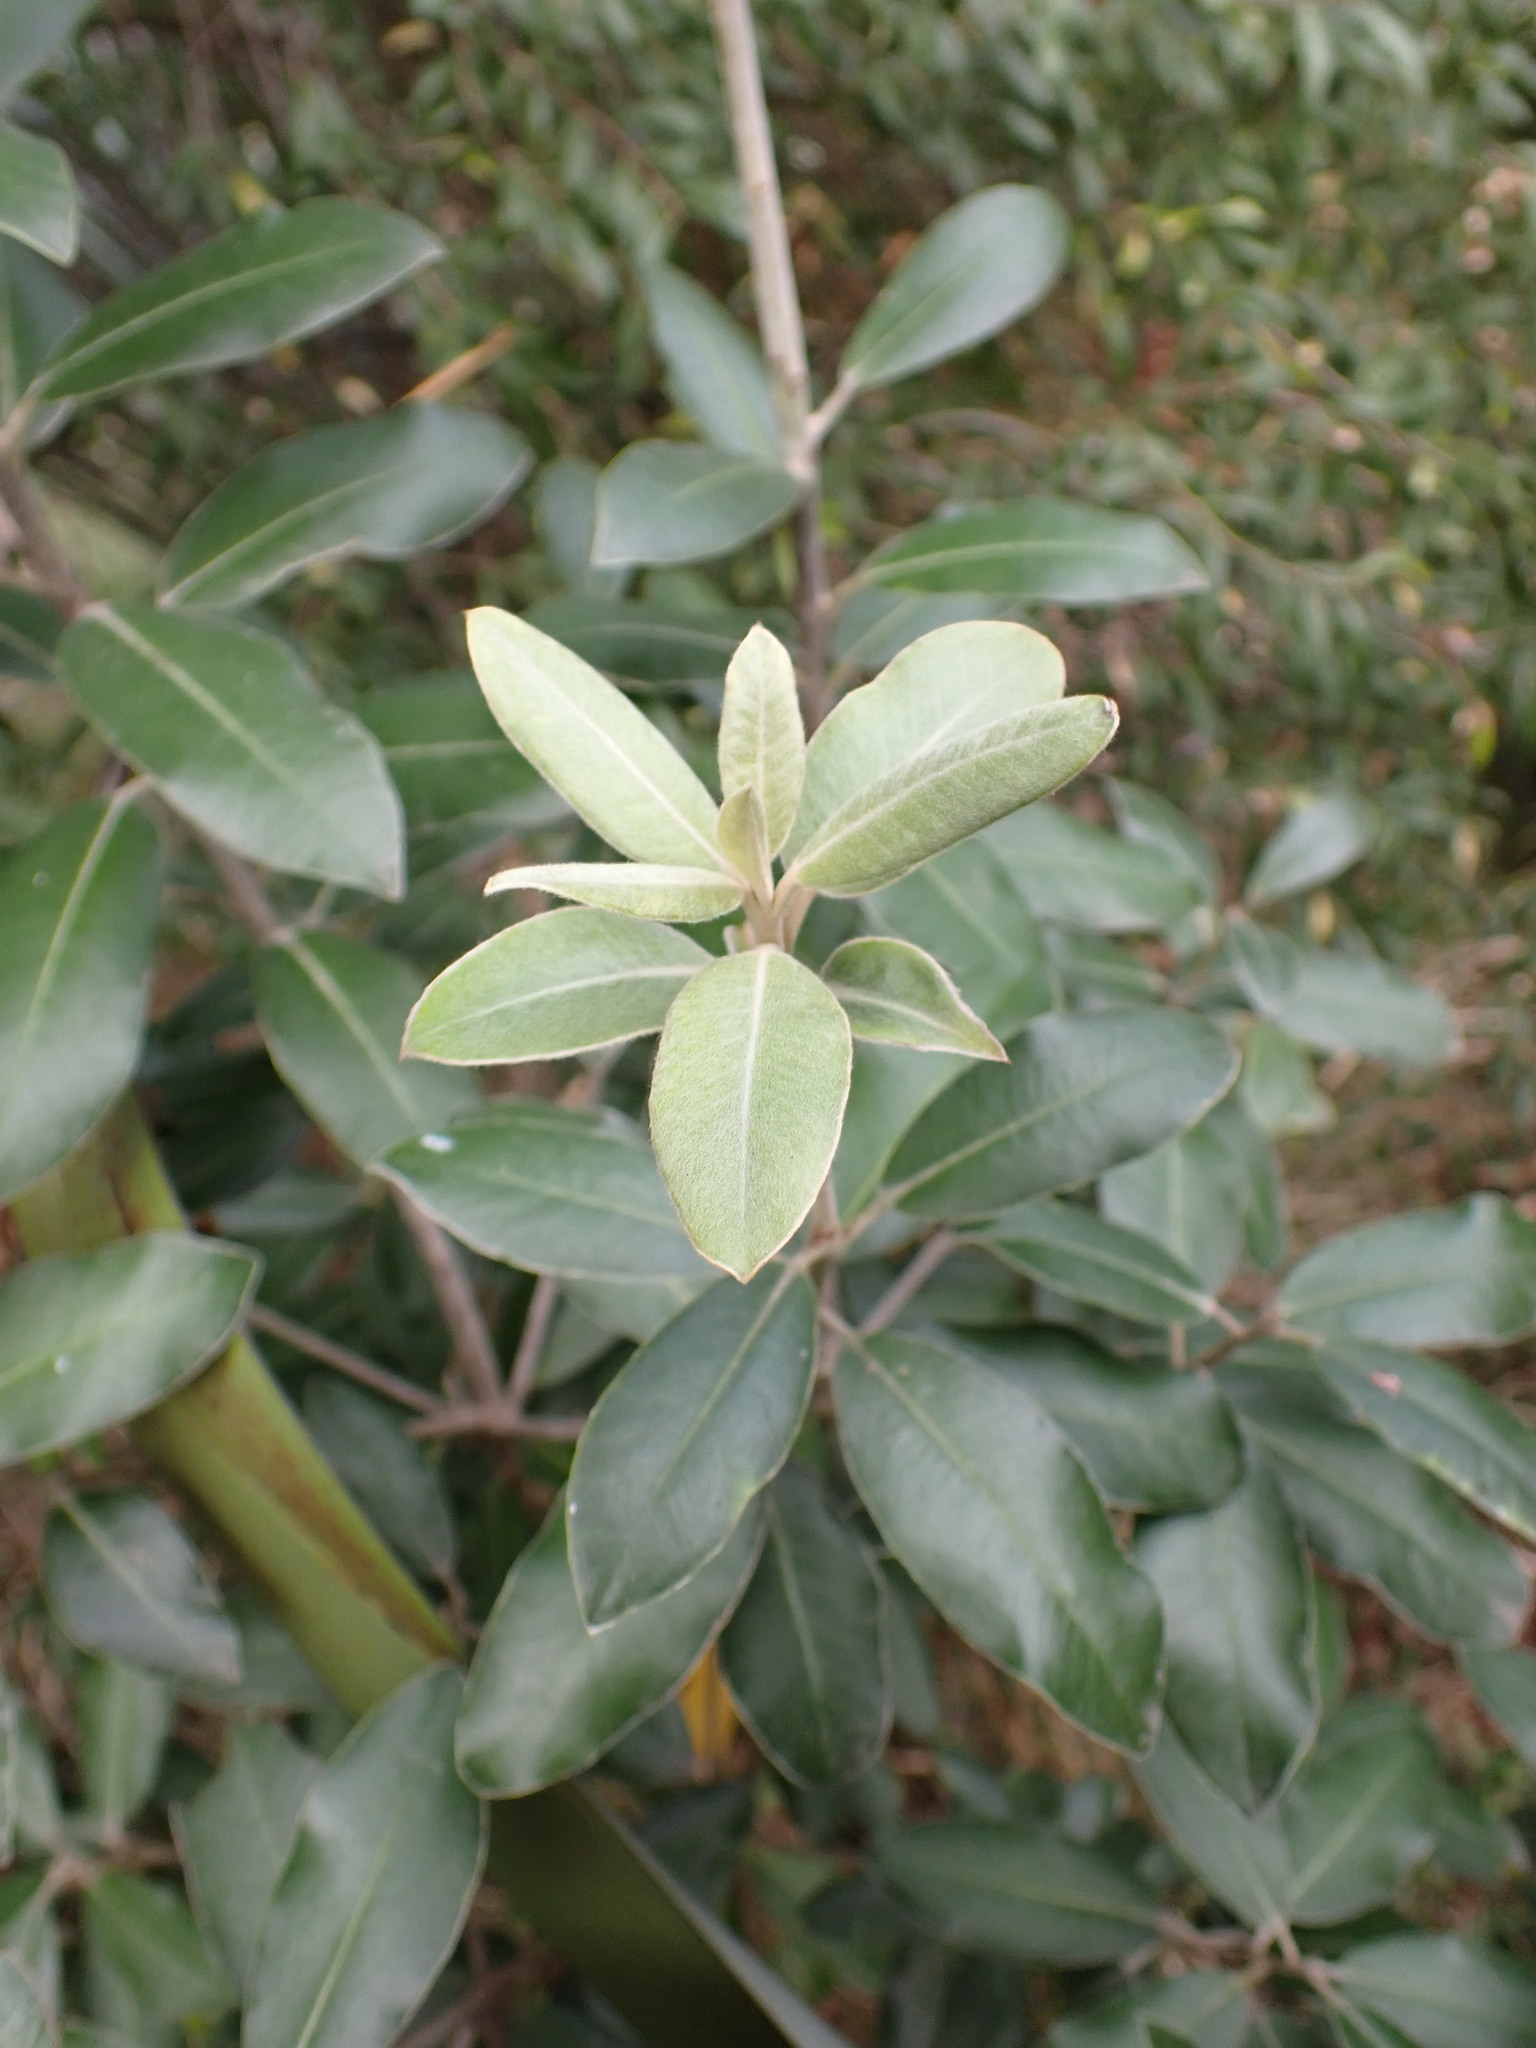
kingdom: Plantae
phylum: Tracheophyta
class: Magnoliopsida
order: Apiales
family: Pittosporaceae
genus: Pittosporum
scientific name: Pittosporum ralphii
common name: Ralph's desertwillow
